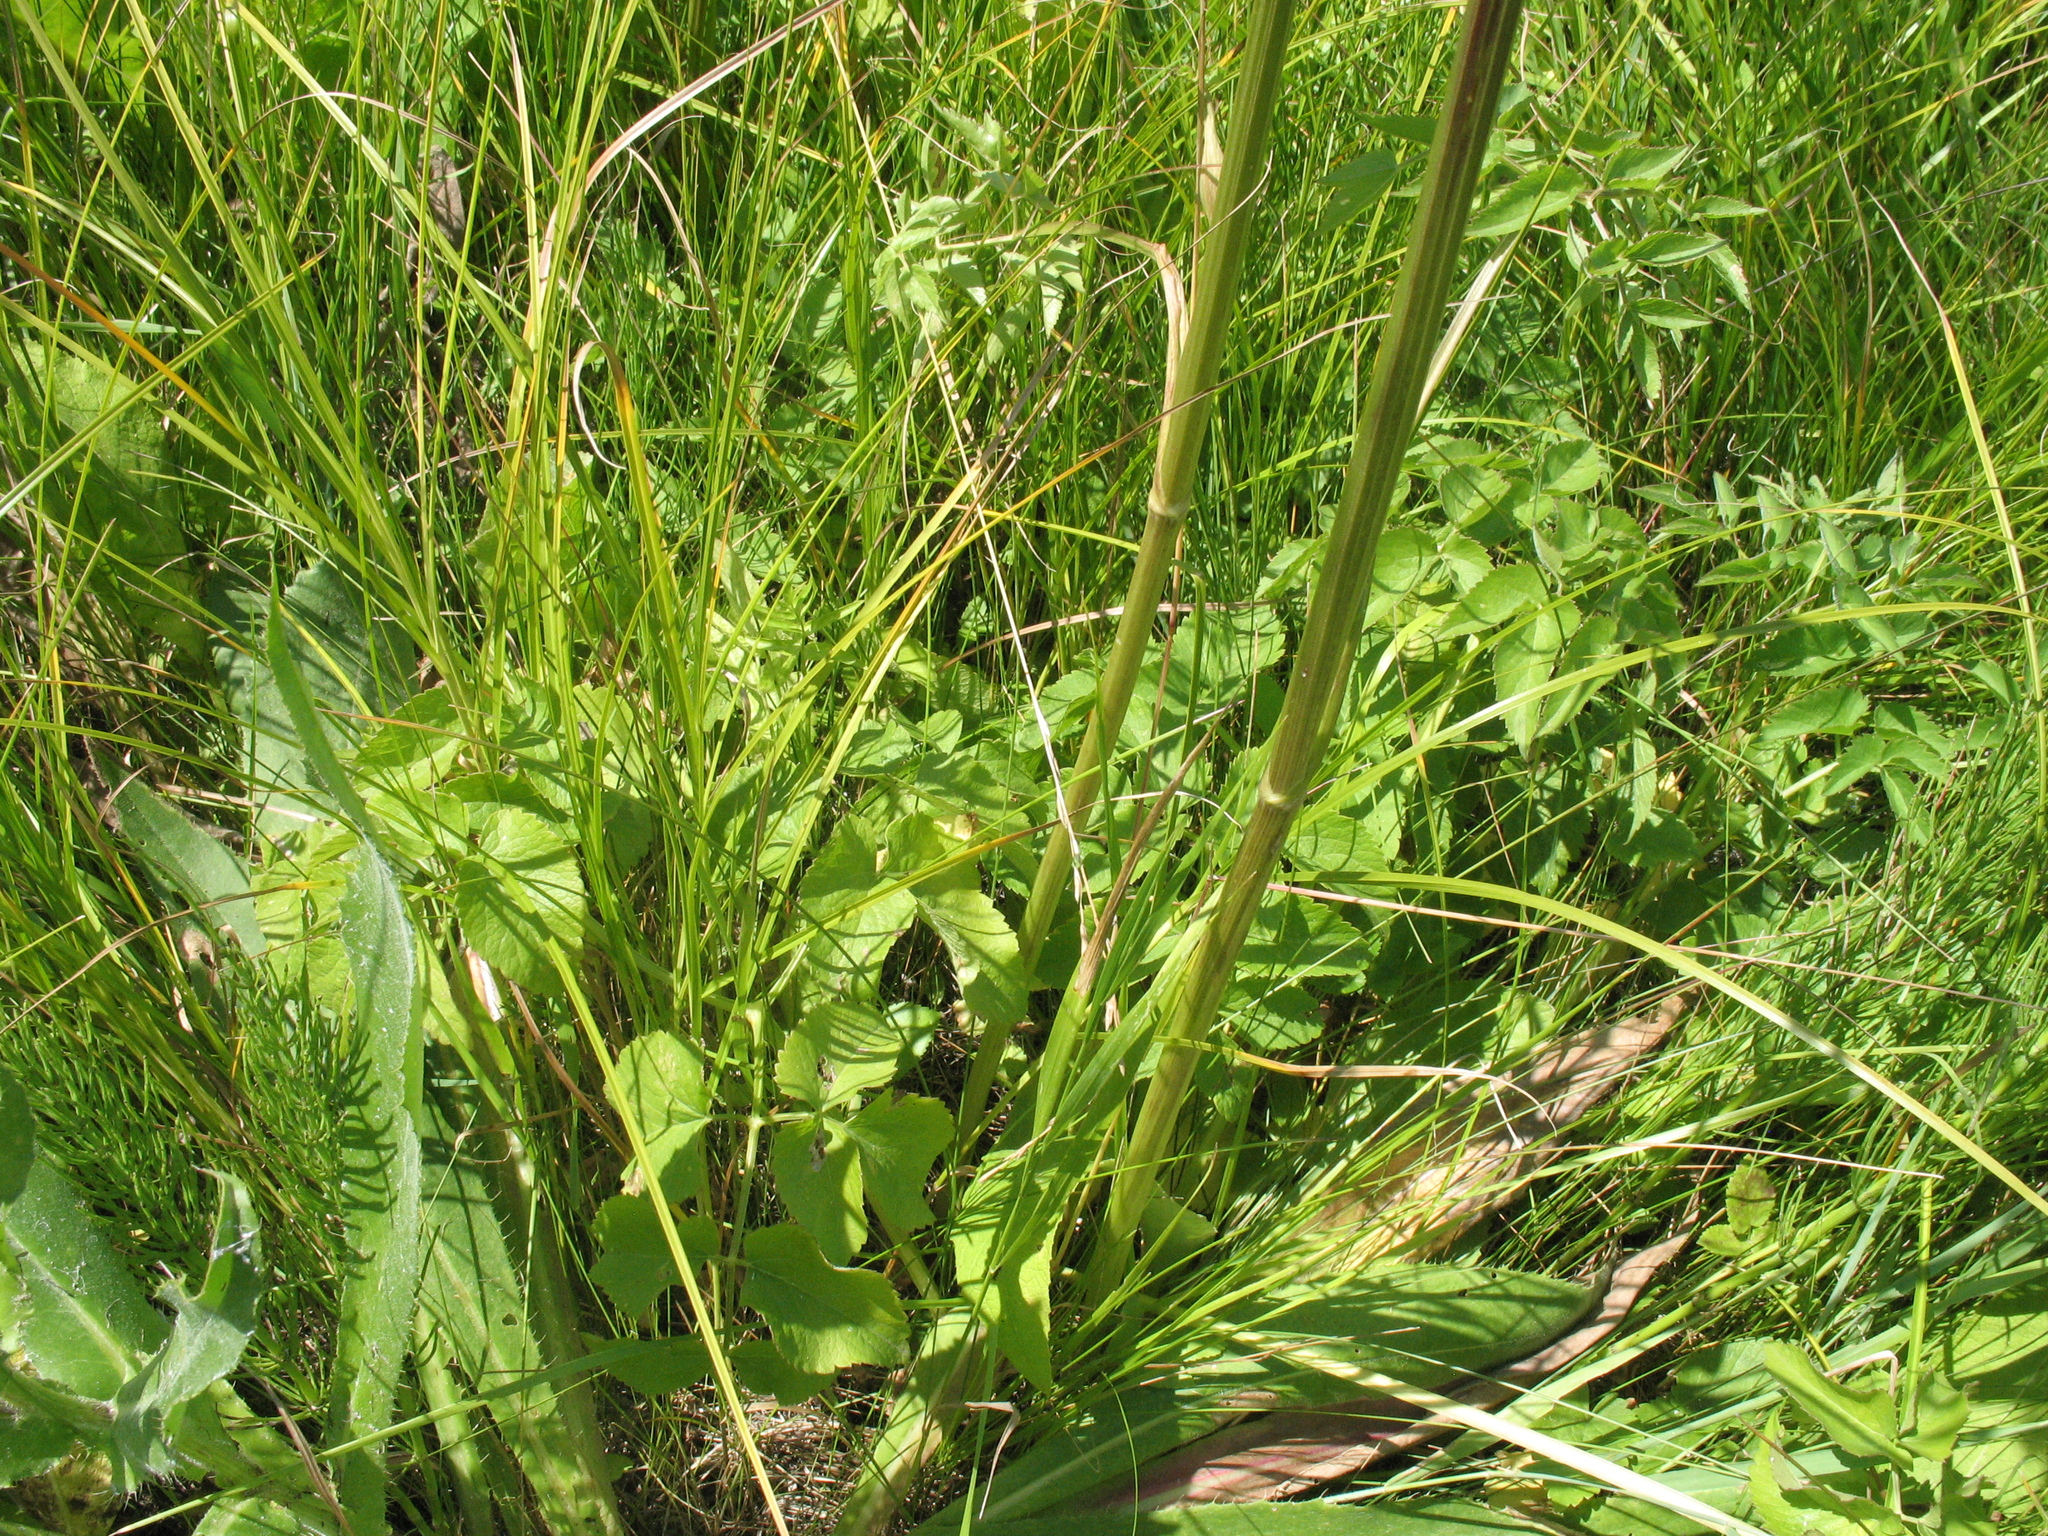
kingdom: Plantae
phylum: Tracheophyta
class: Magnoliopsida
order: Apiales
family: Apiaceae
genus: Ostericum
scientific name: Ostericum palustre
